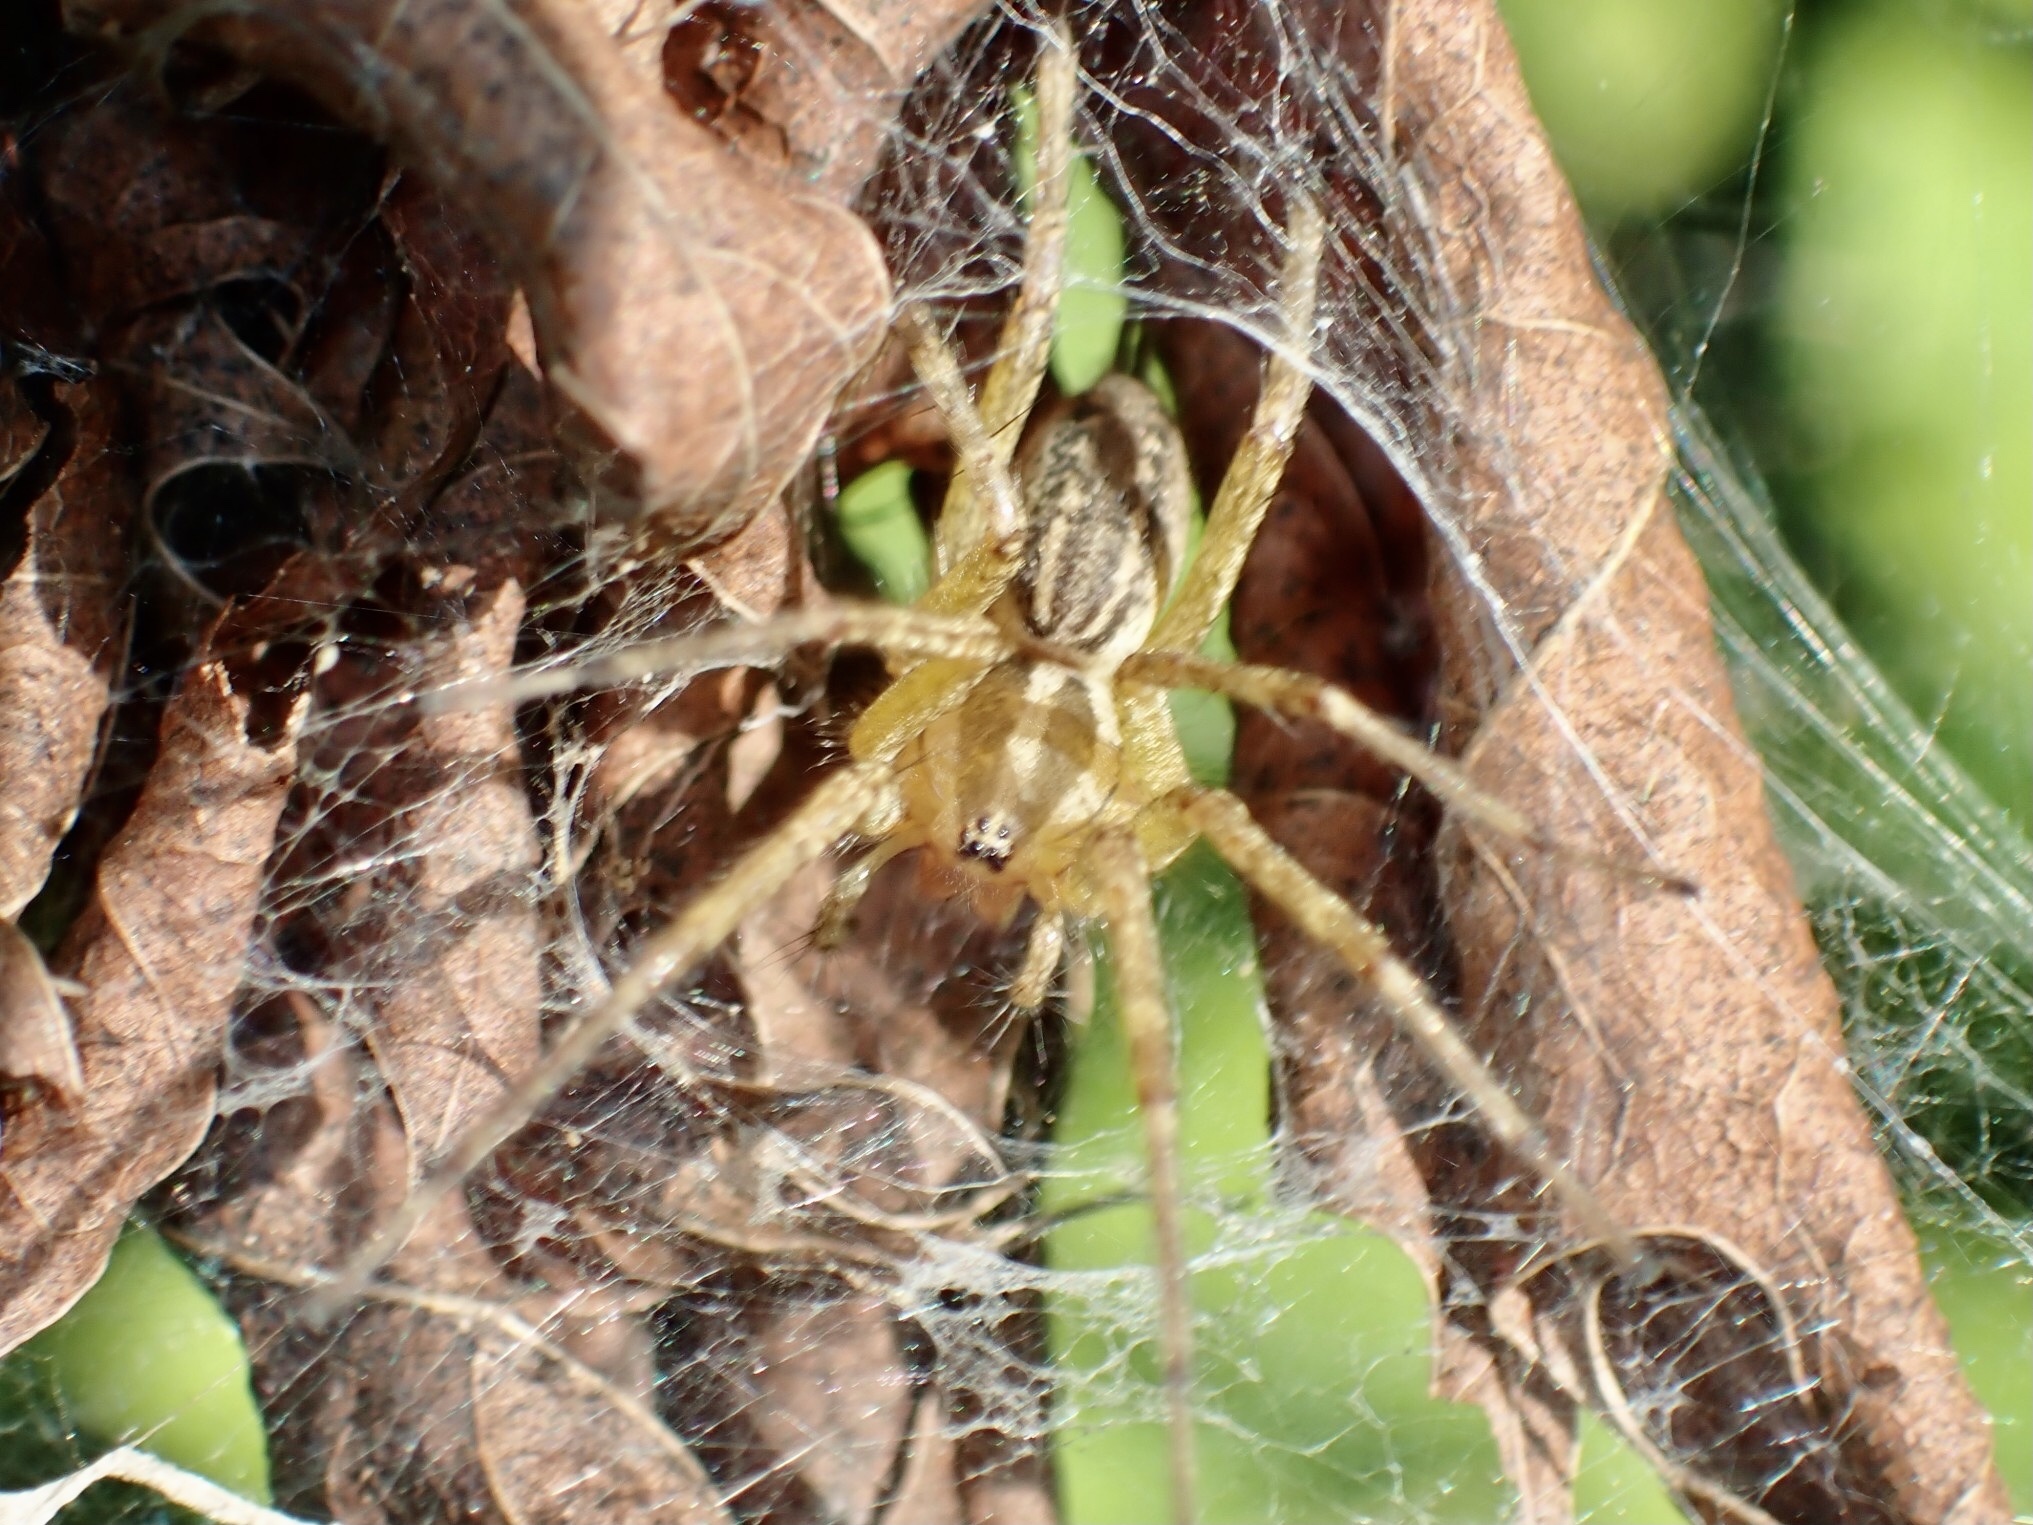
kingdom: Animalia
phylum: Arthropoda
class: Arachnida
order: Araneae
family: Agelenidae
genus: Agelenopsis
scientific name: Agelenopsis
